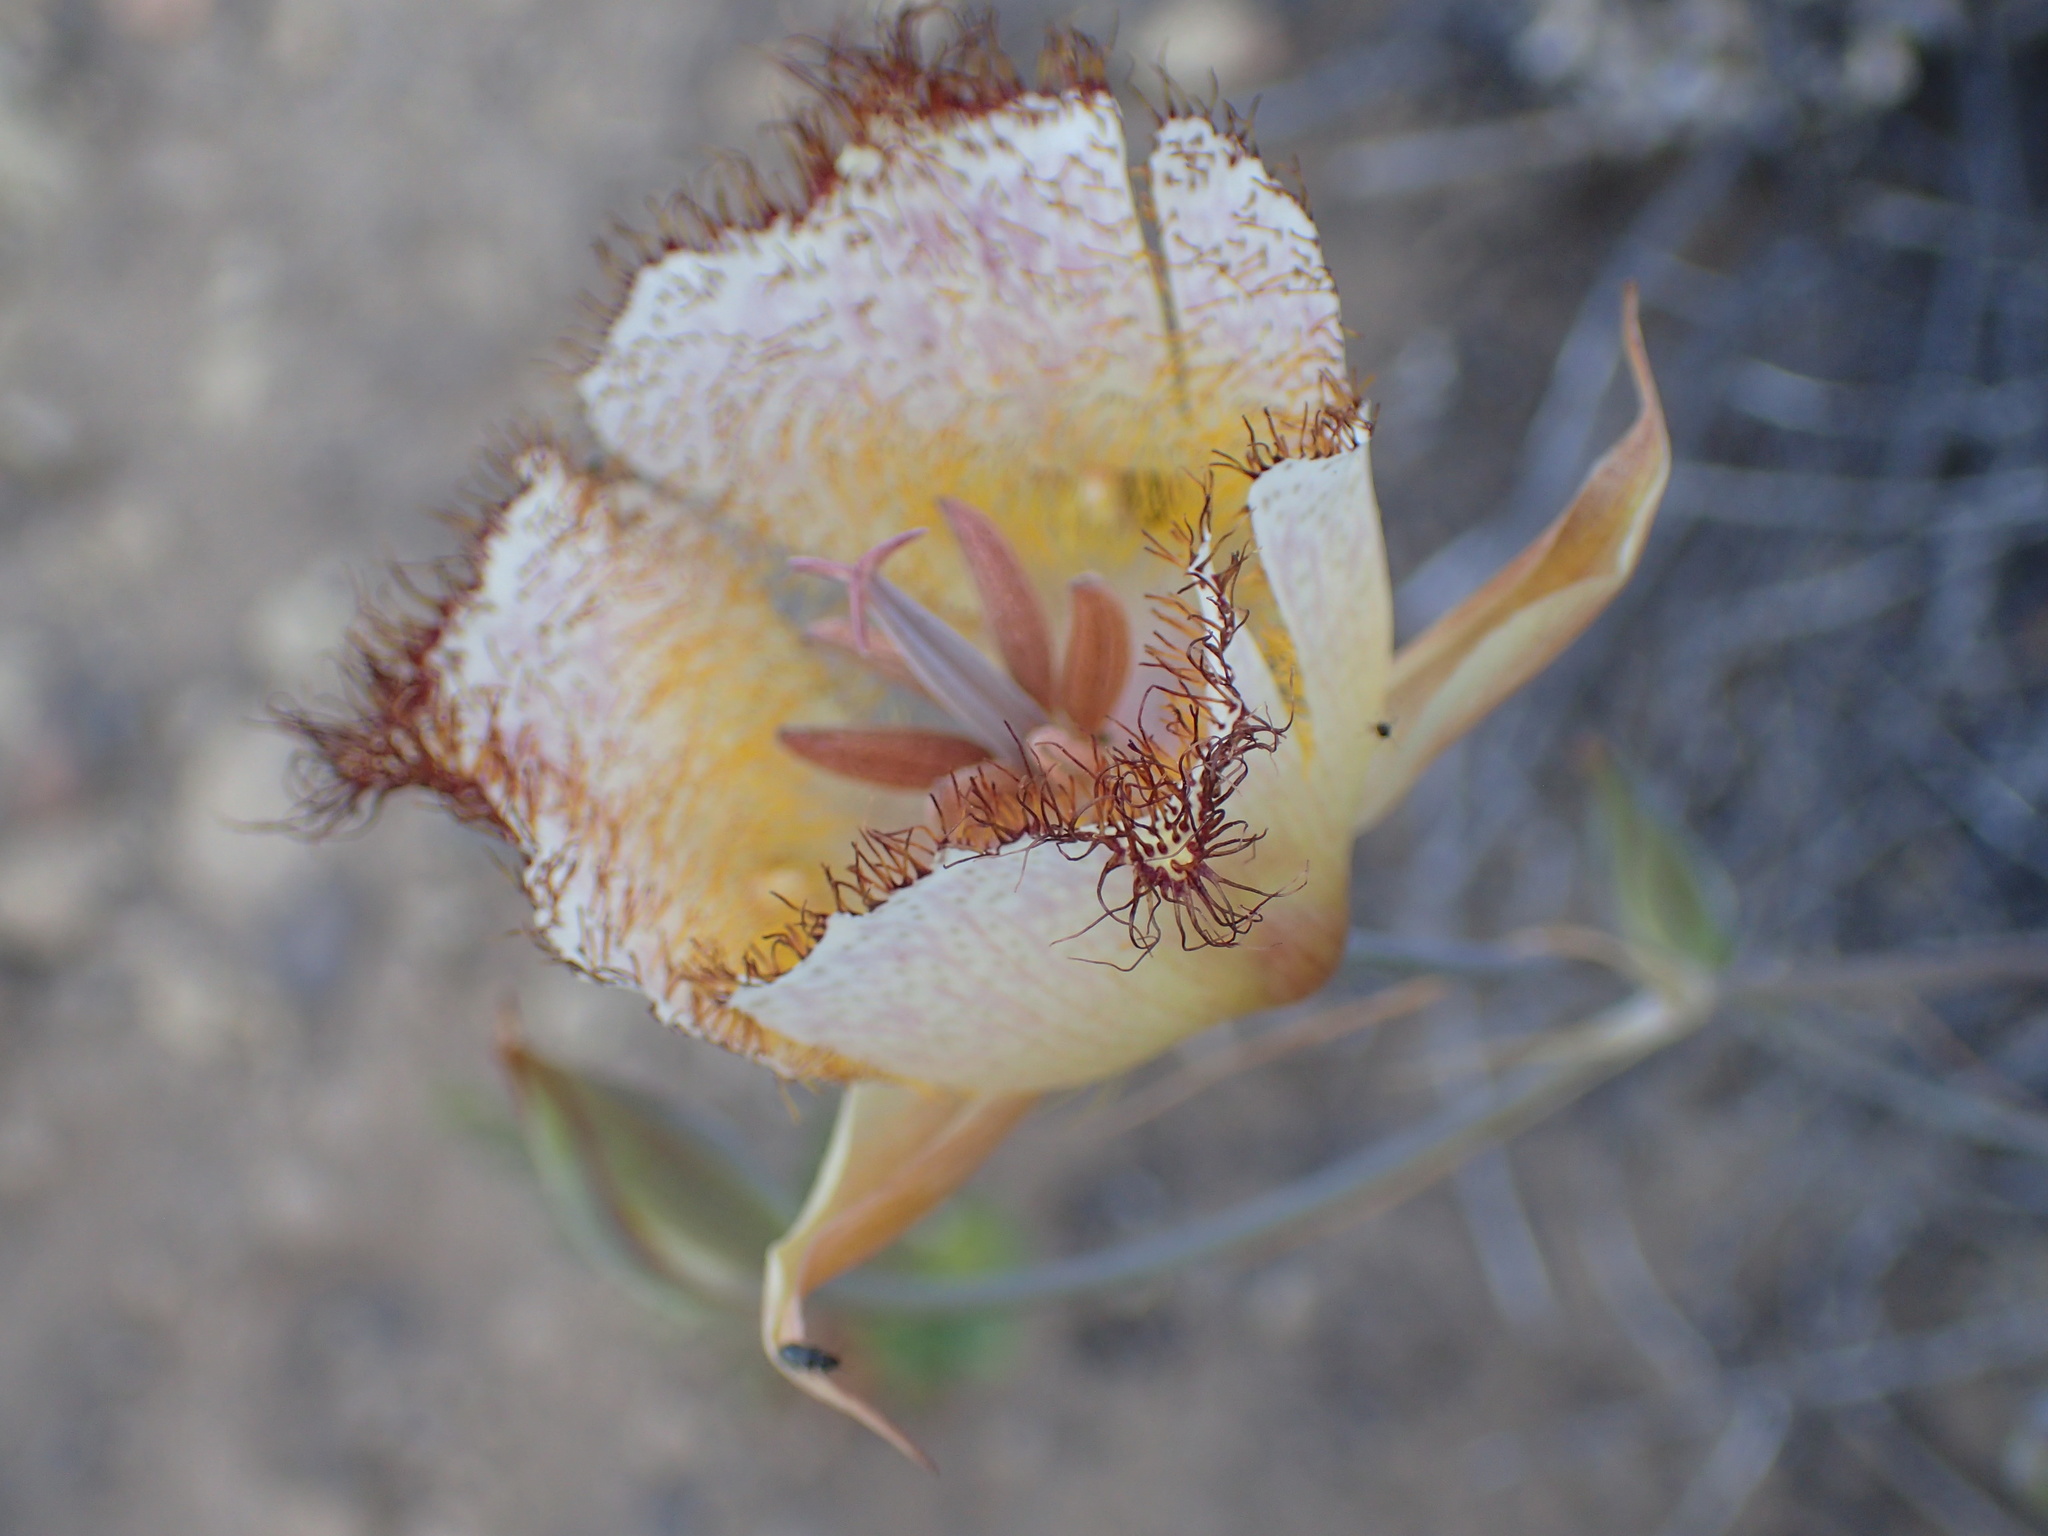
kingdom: Plantae
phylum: Tracheophyta
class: Liliopsida
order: Liliales
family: Liliaceae
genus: Calochortus
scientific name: Calochortus fimbriatus
